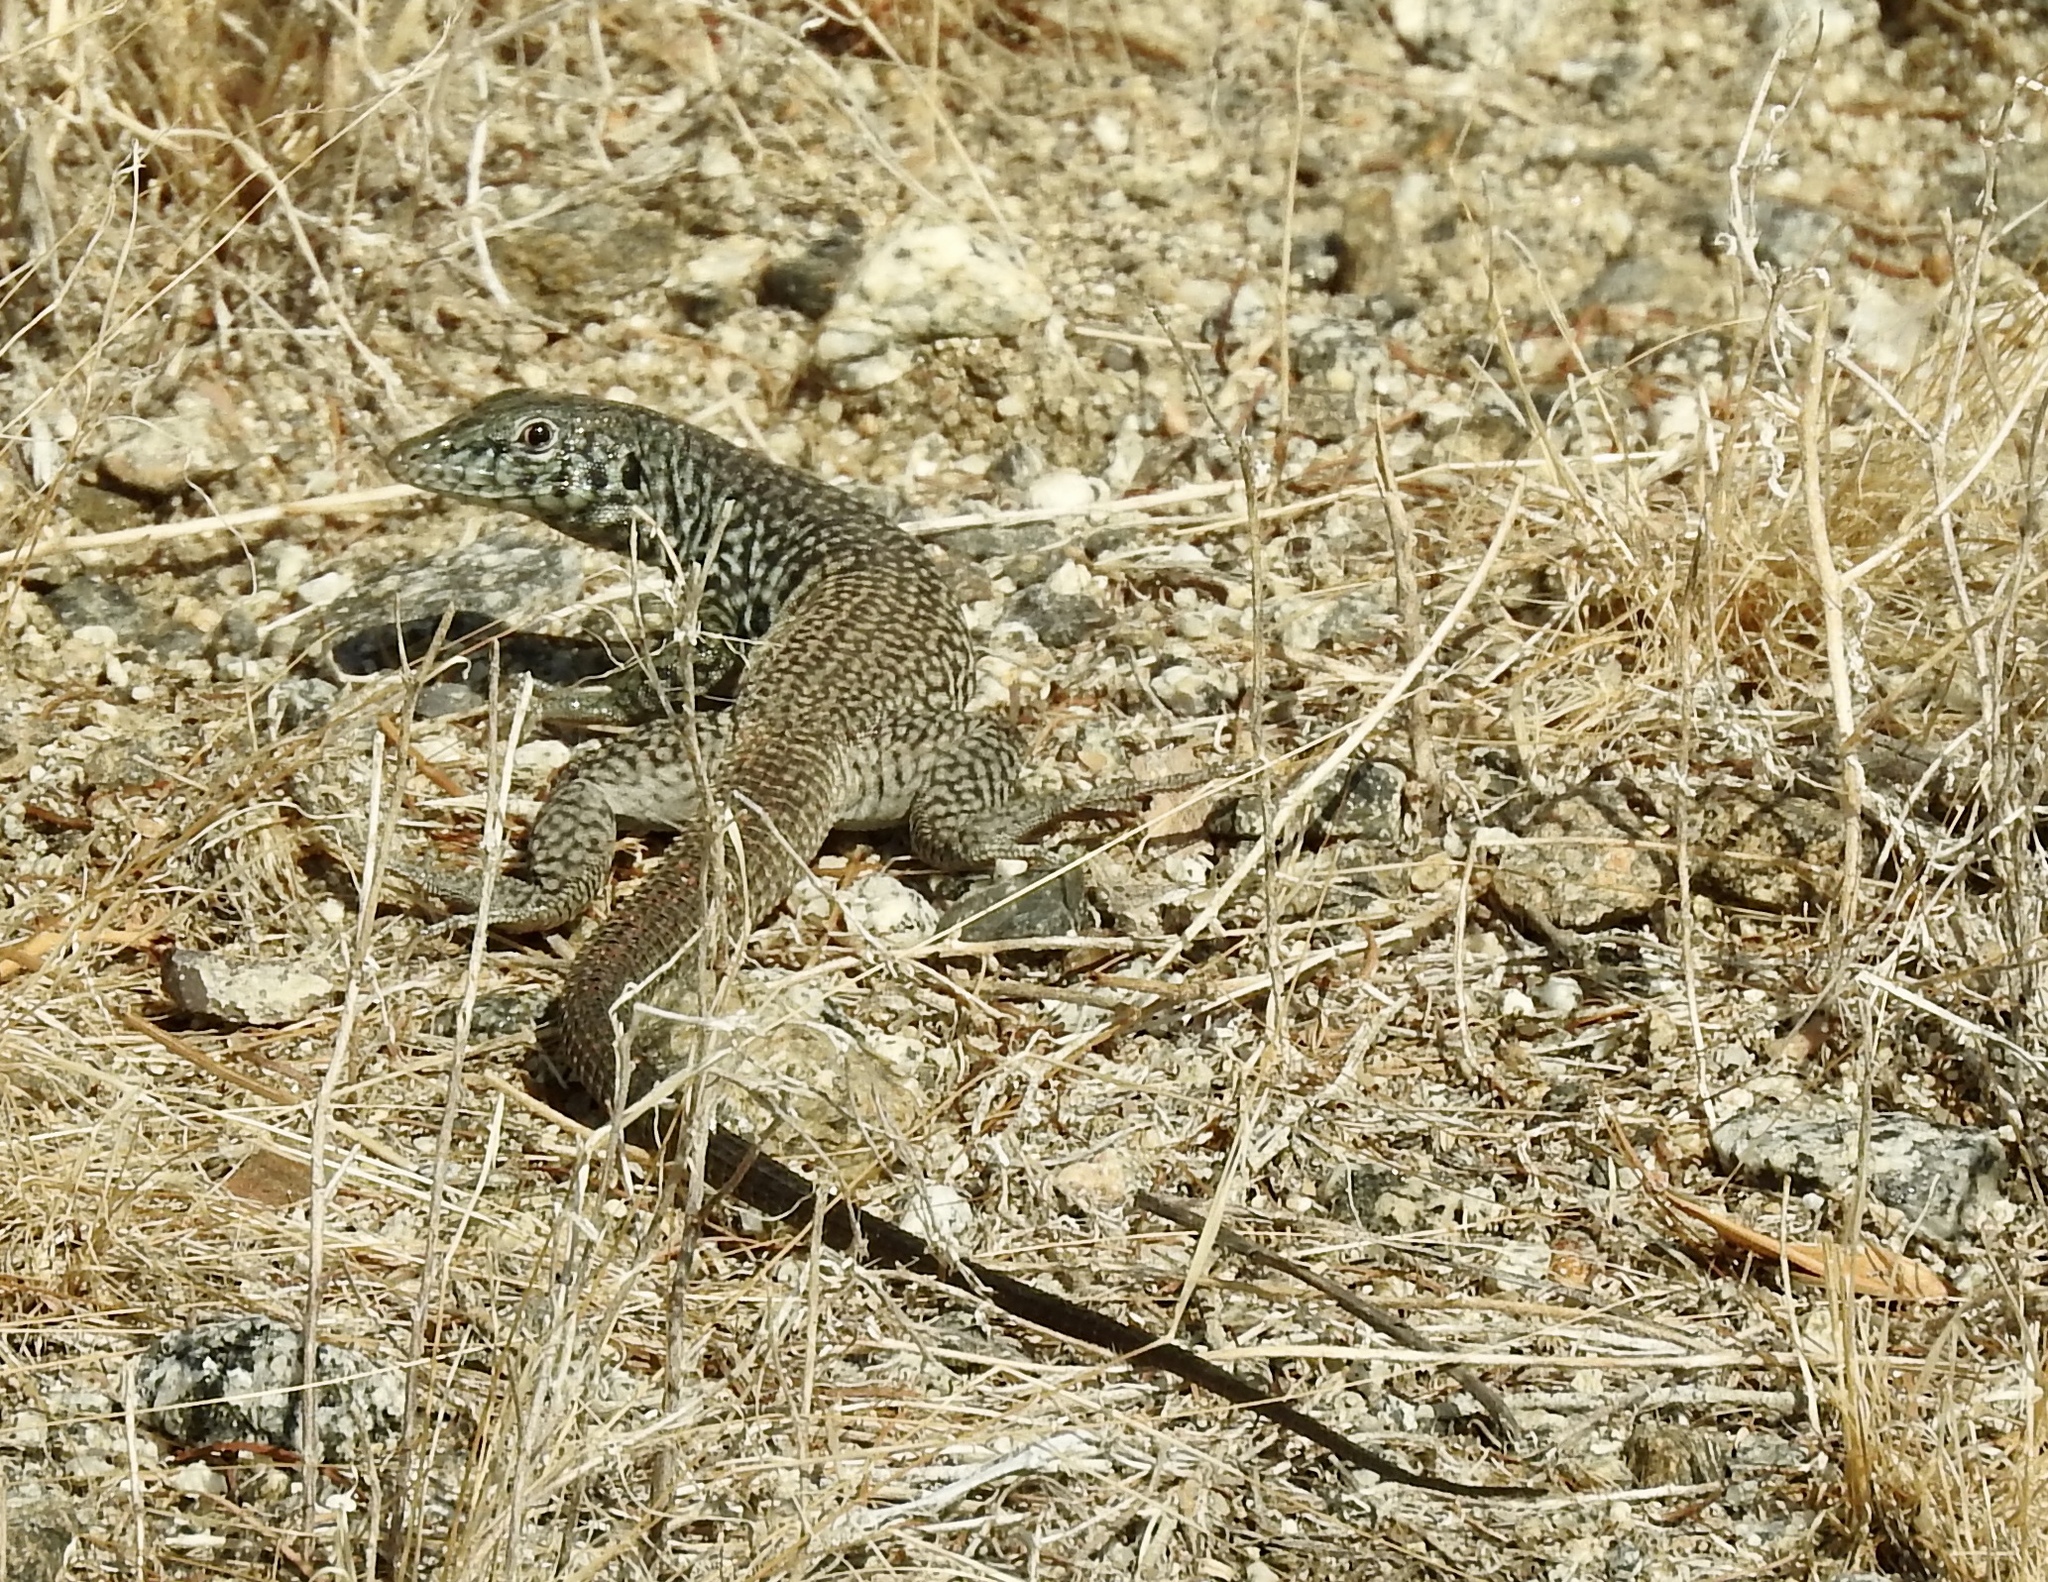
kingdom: Animalia
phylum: Chordata
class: Squamata
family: Teiidae
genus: Aspidoscelis
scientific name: Aspidoscelis tigris
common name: Tiger whiptail
